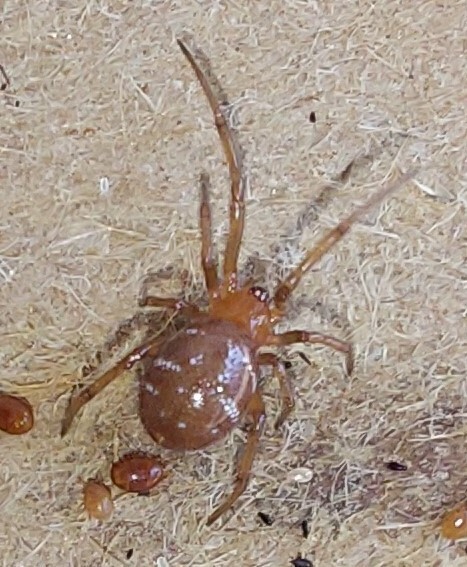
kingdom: Animalia
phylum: Arthropoda
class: Arachnida
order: Araneae
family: Theridiidae
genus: Steatoda
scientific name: Steatoda capensis
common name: Cobweb weaver
